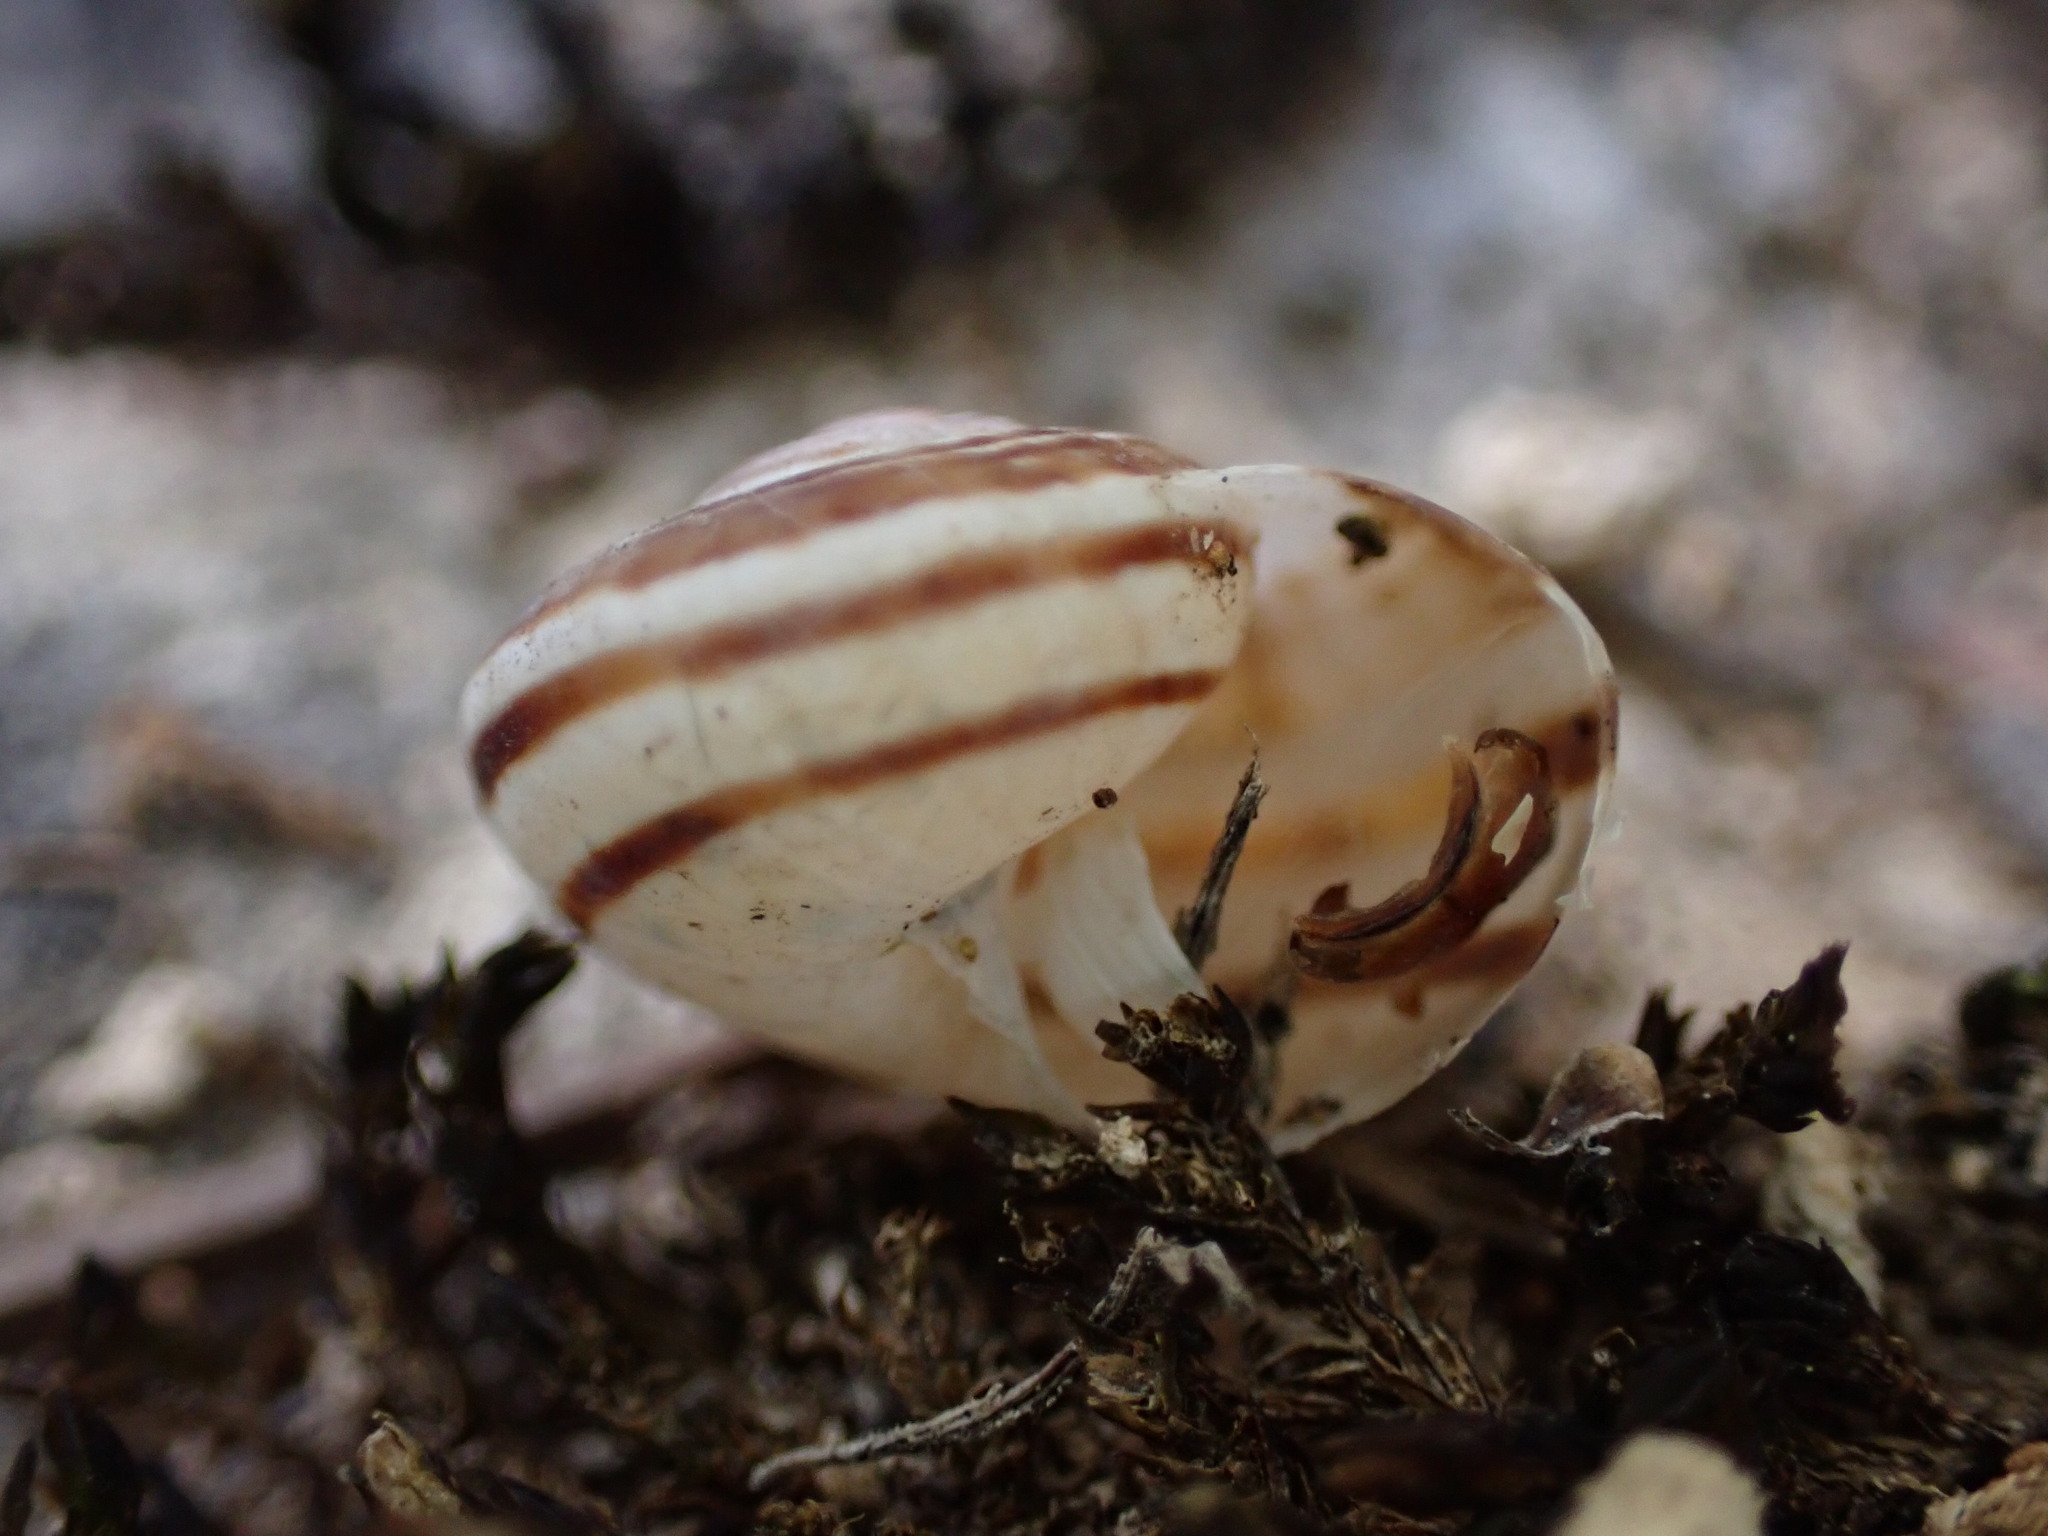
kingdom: Animalia
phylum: Mollusca
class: Gastropoda
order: Stylommatophora
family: Helicidae
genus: Pseudotachea
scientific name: Pseudotachea splendida
